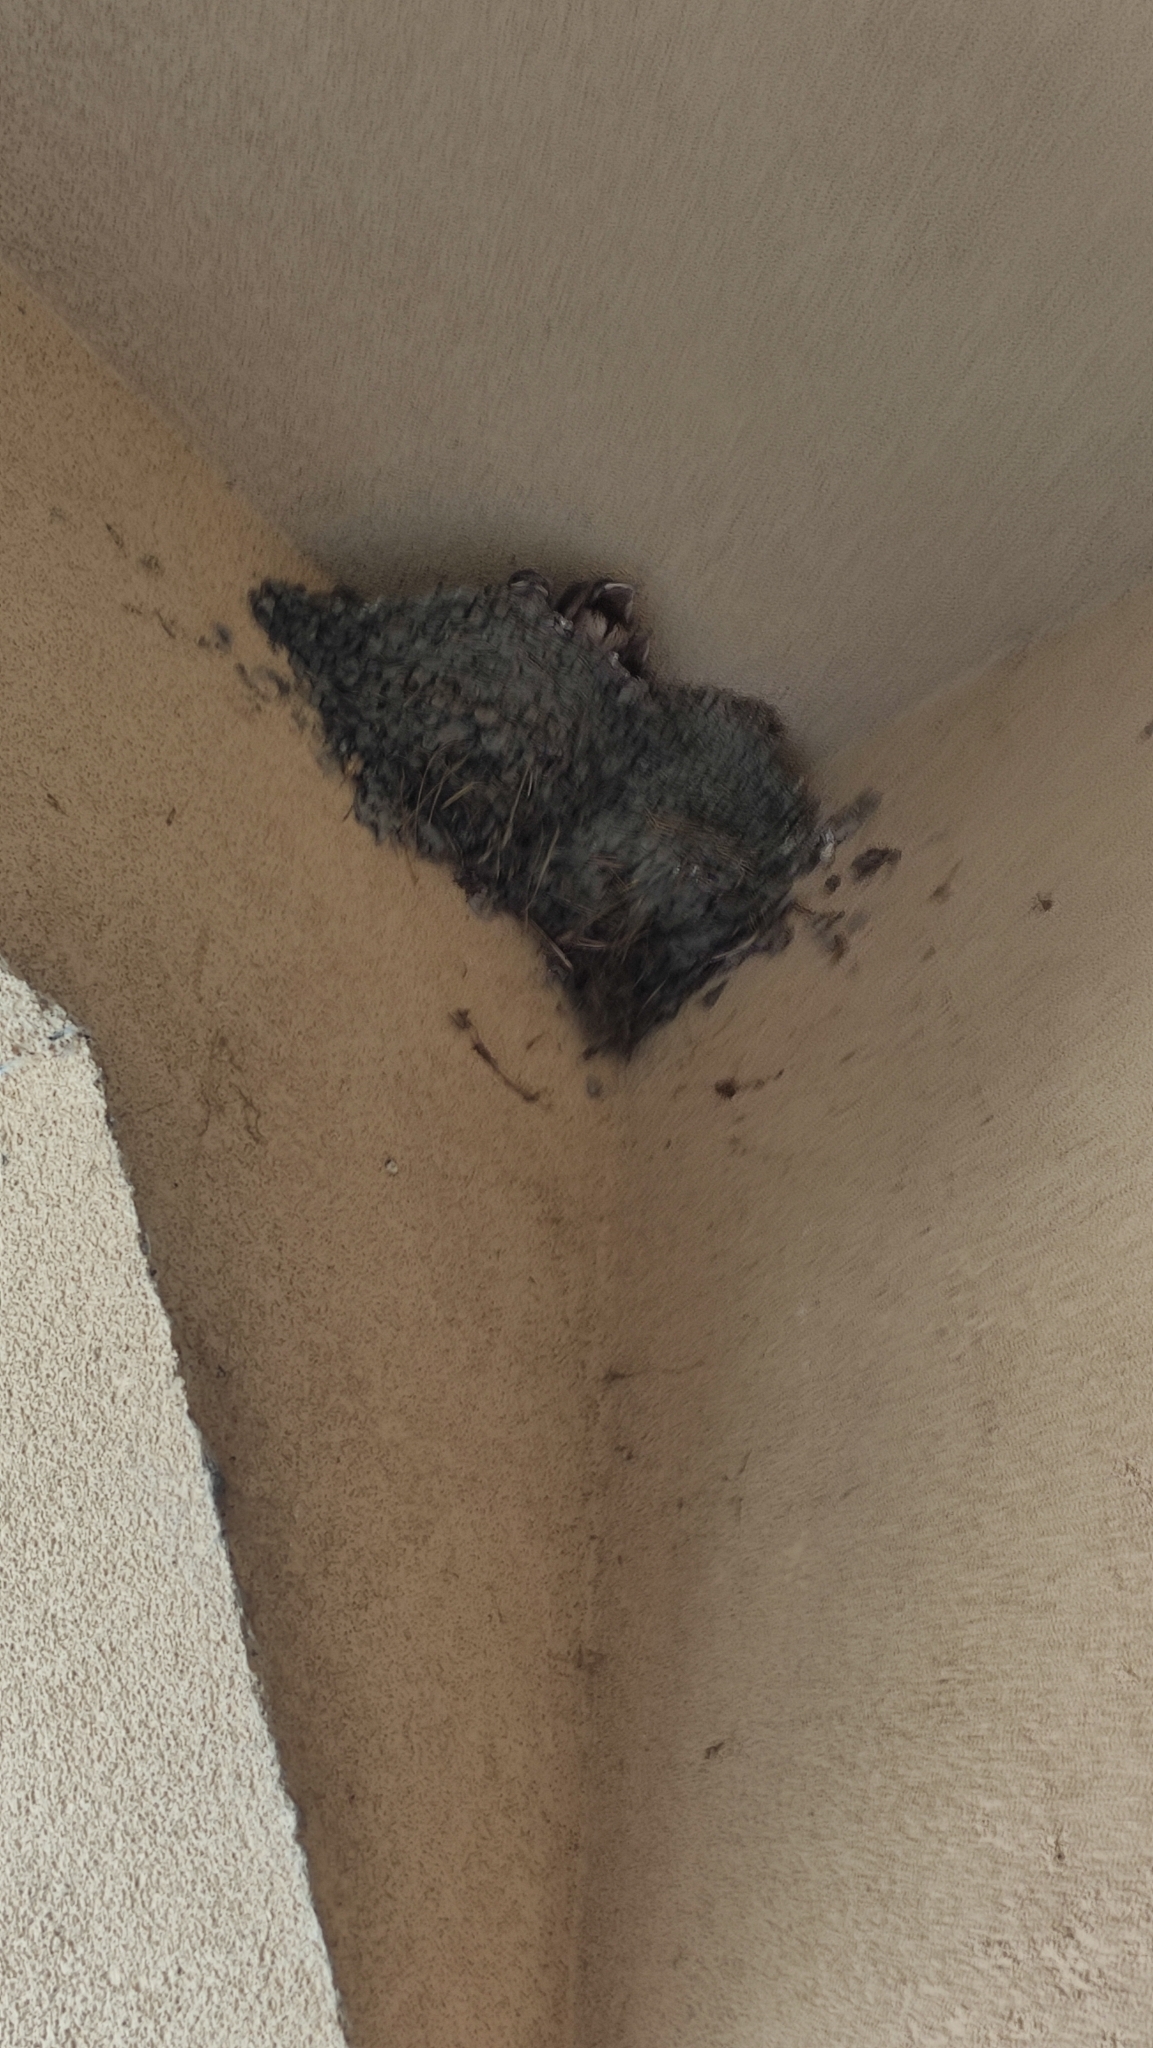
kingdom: Animalia
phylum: Chordata
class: Aves
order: Passeriformes
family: Hirundinidae
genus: Hirundo
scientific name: Hirundo rustica
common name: Barn swallow
